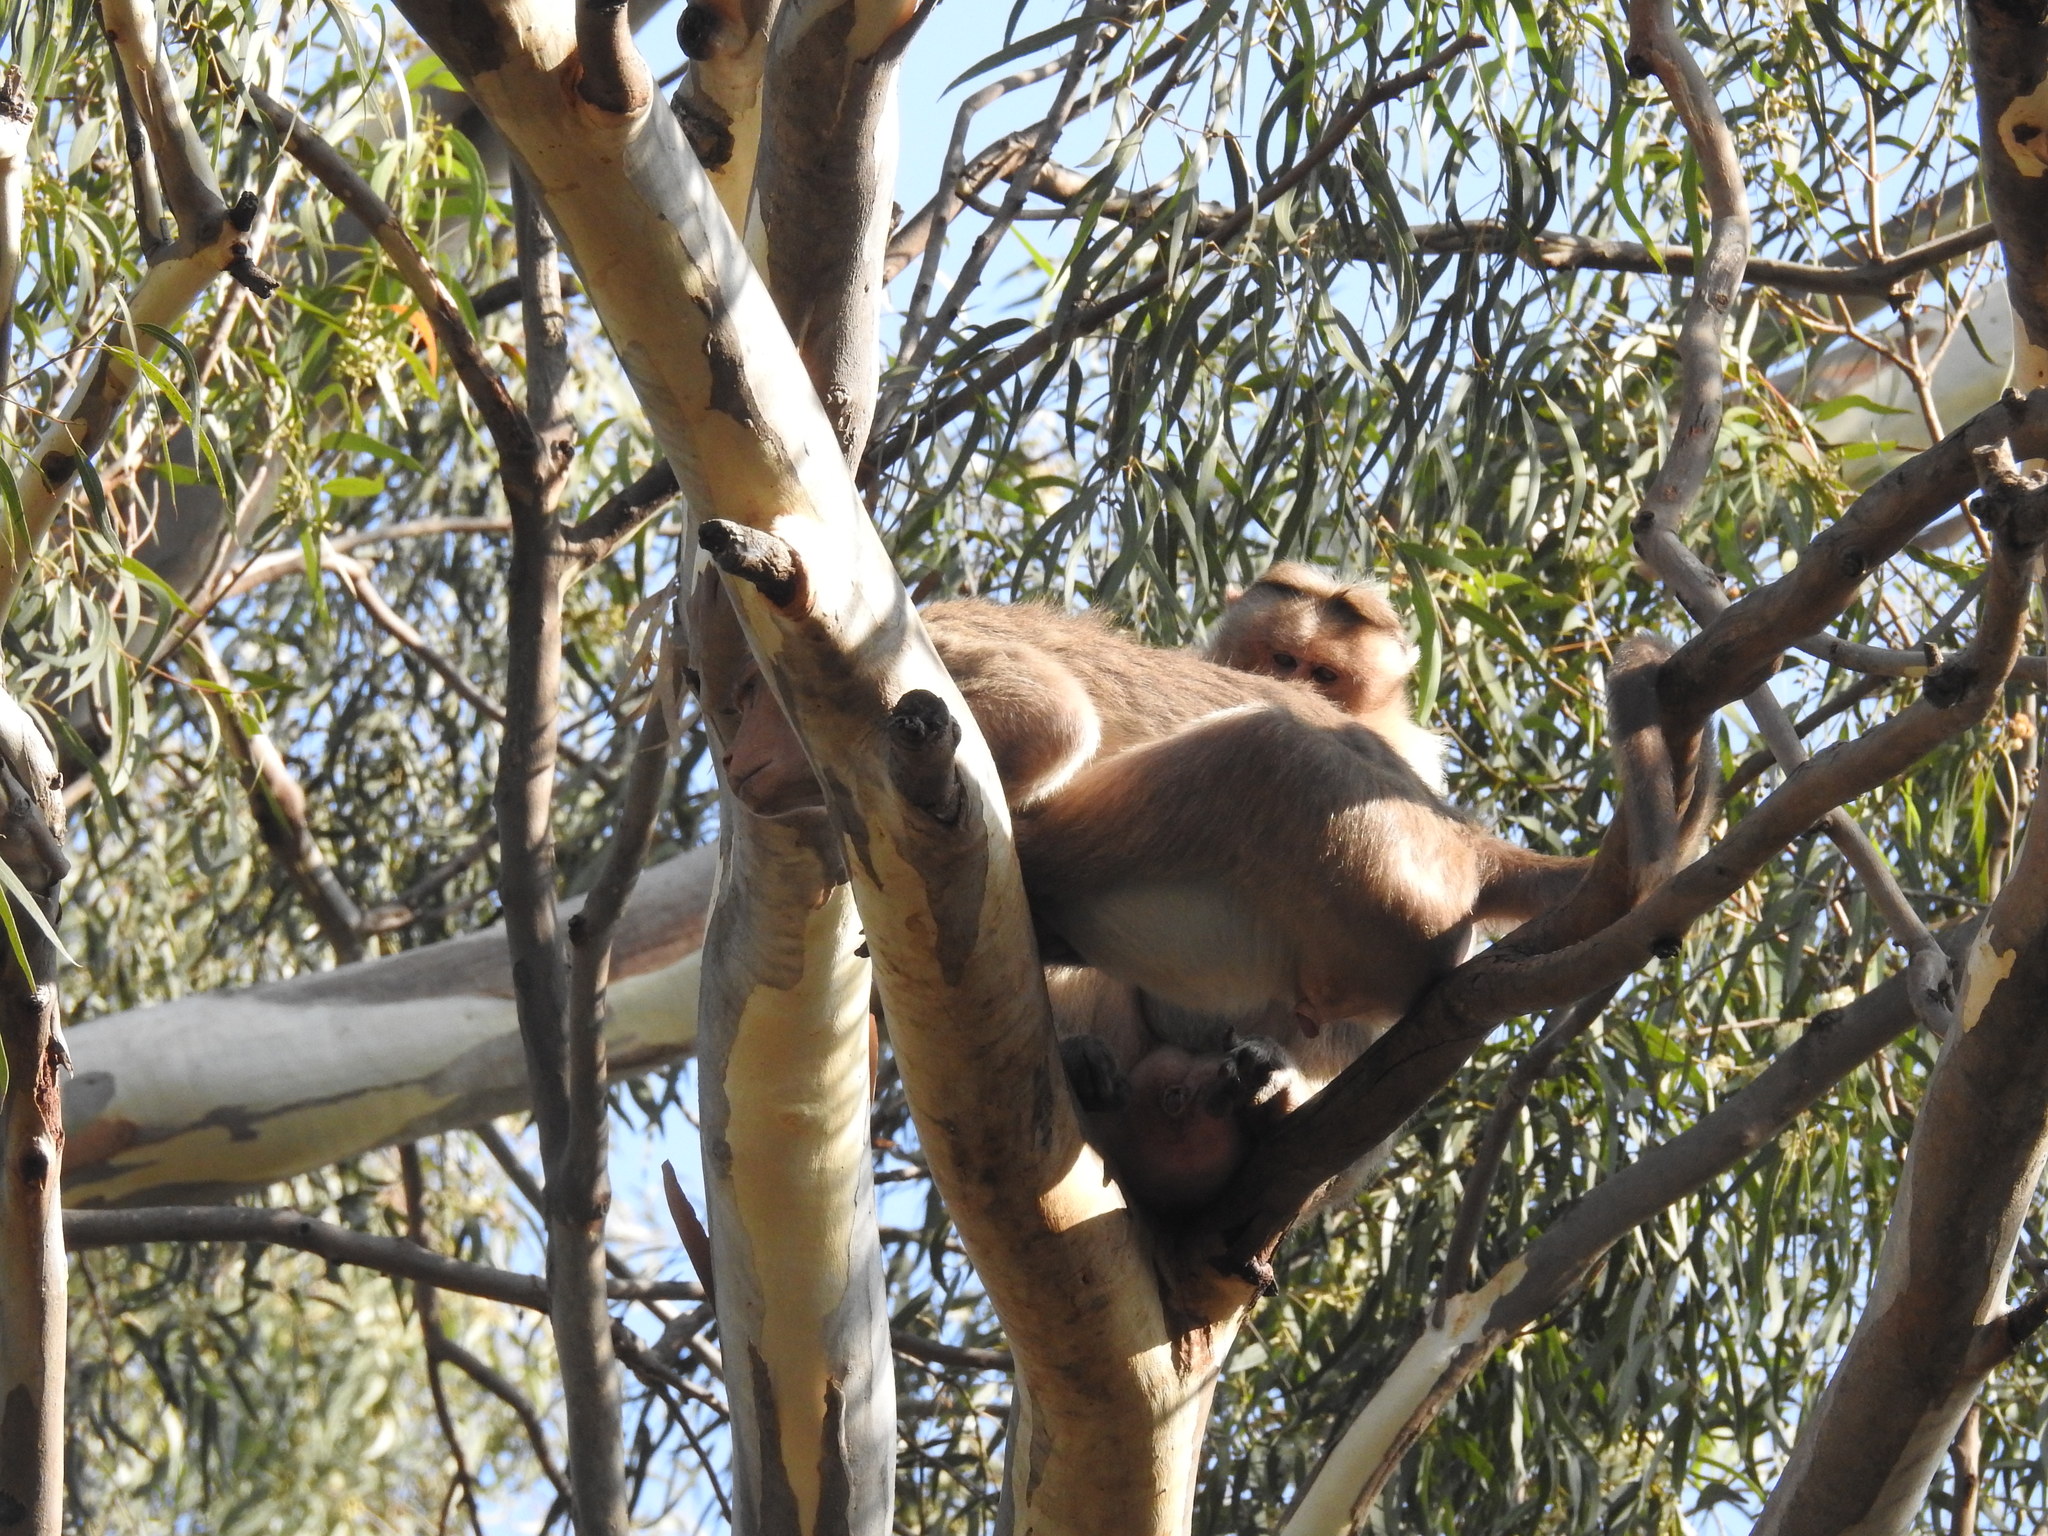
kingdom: Animalia
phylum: Chordata
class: Mammalia
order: Primates
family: Cercopithecidae
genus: Macaca
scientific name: Macaca radiata
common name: Bonnet macaque
